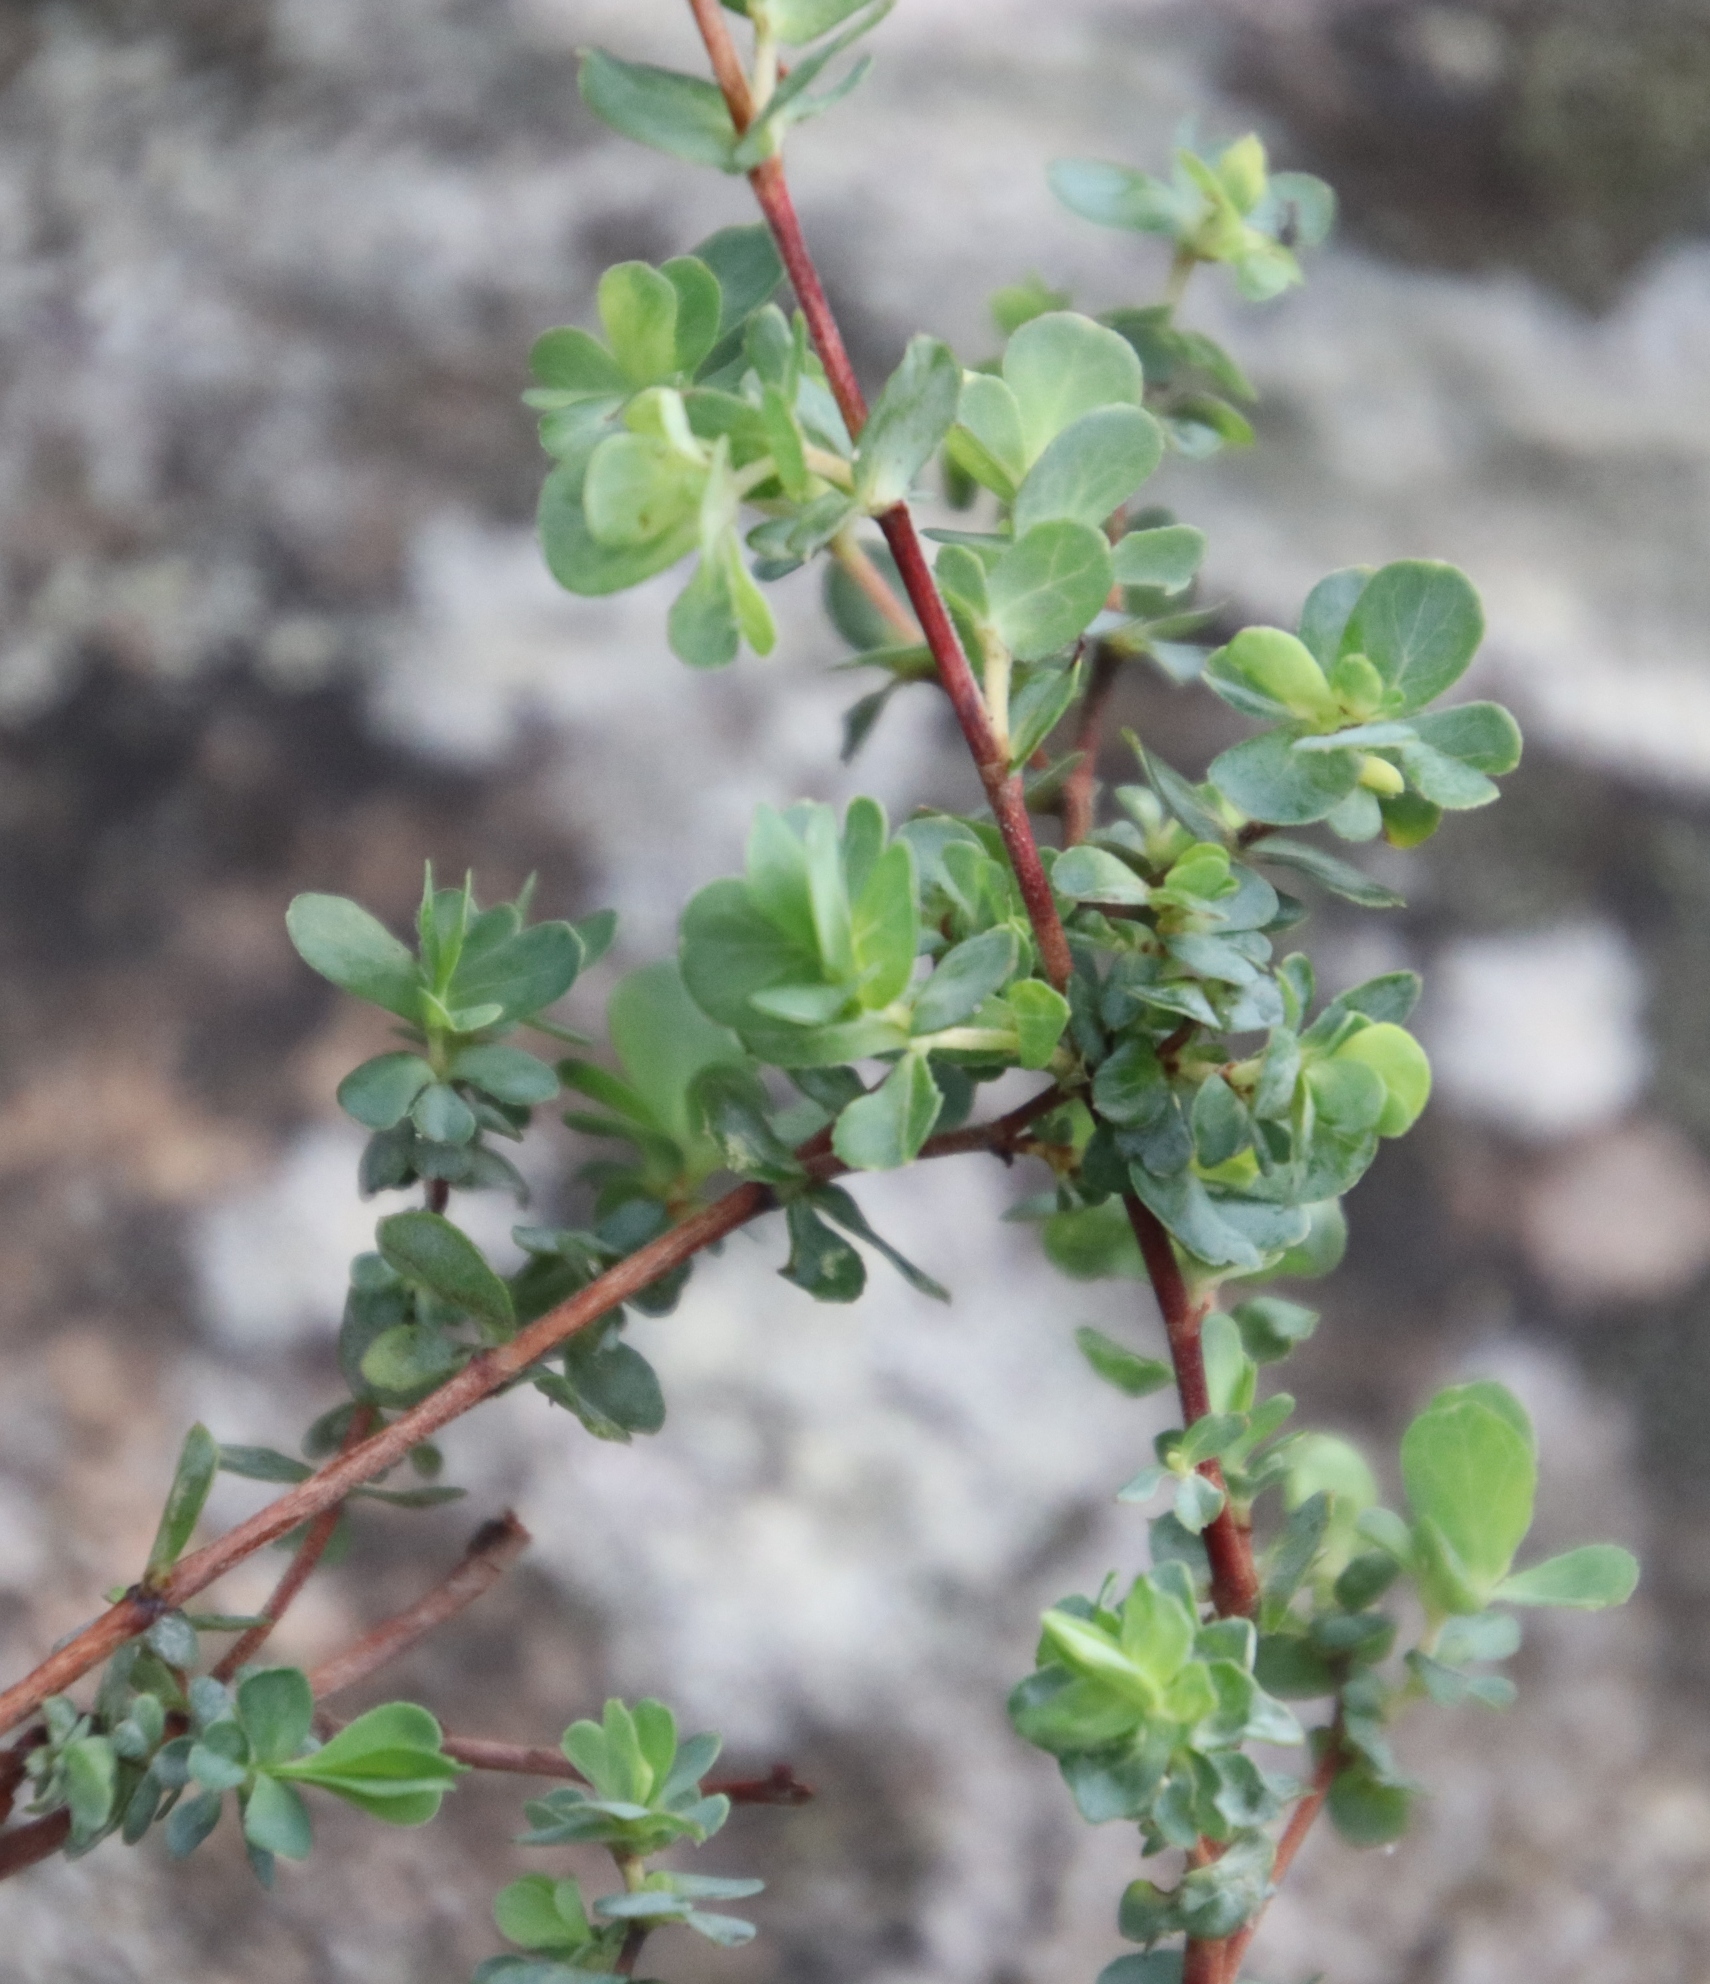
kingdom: Plantae
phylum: Tracheophyta
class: Magnoliopsida
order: Rosales
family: Rosaceae
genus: Cliffortia
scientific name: Cliffortia obcordata
